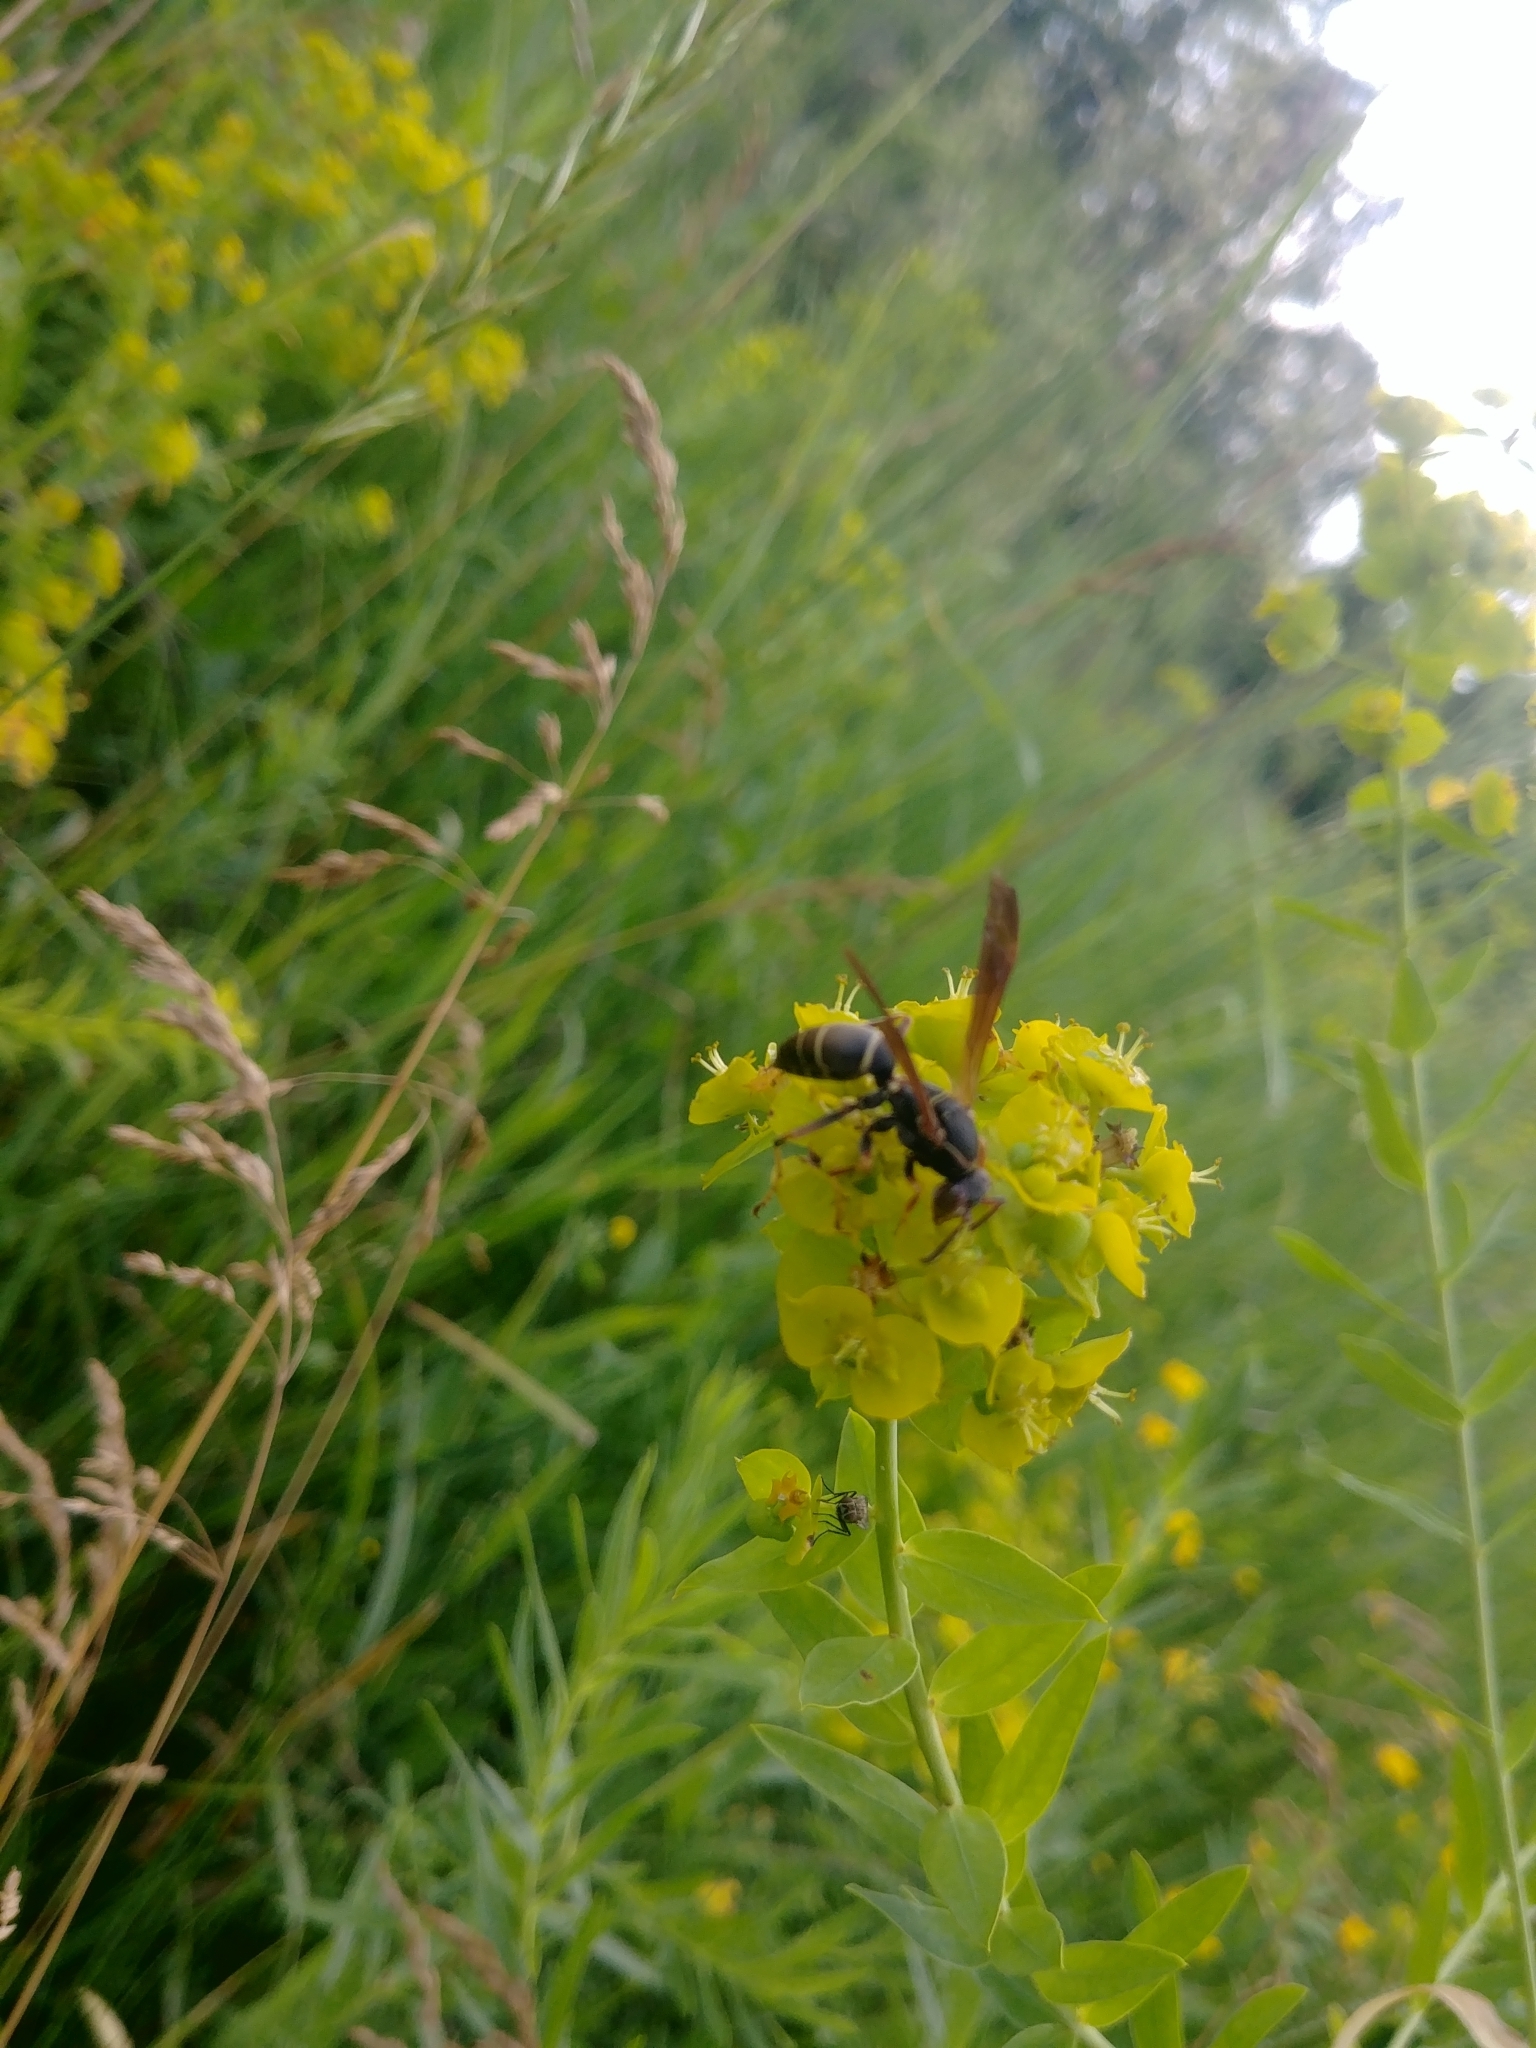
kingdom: Animalia
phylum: Arthropoda
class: Insecta
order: Hymenoptera
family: Eumenidae
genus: Polistes
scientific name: Polistes fuscatus
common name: Dark paper wasp
